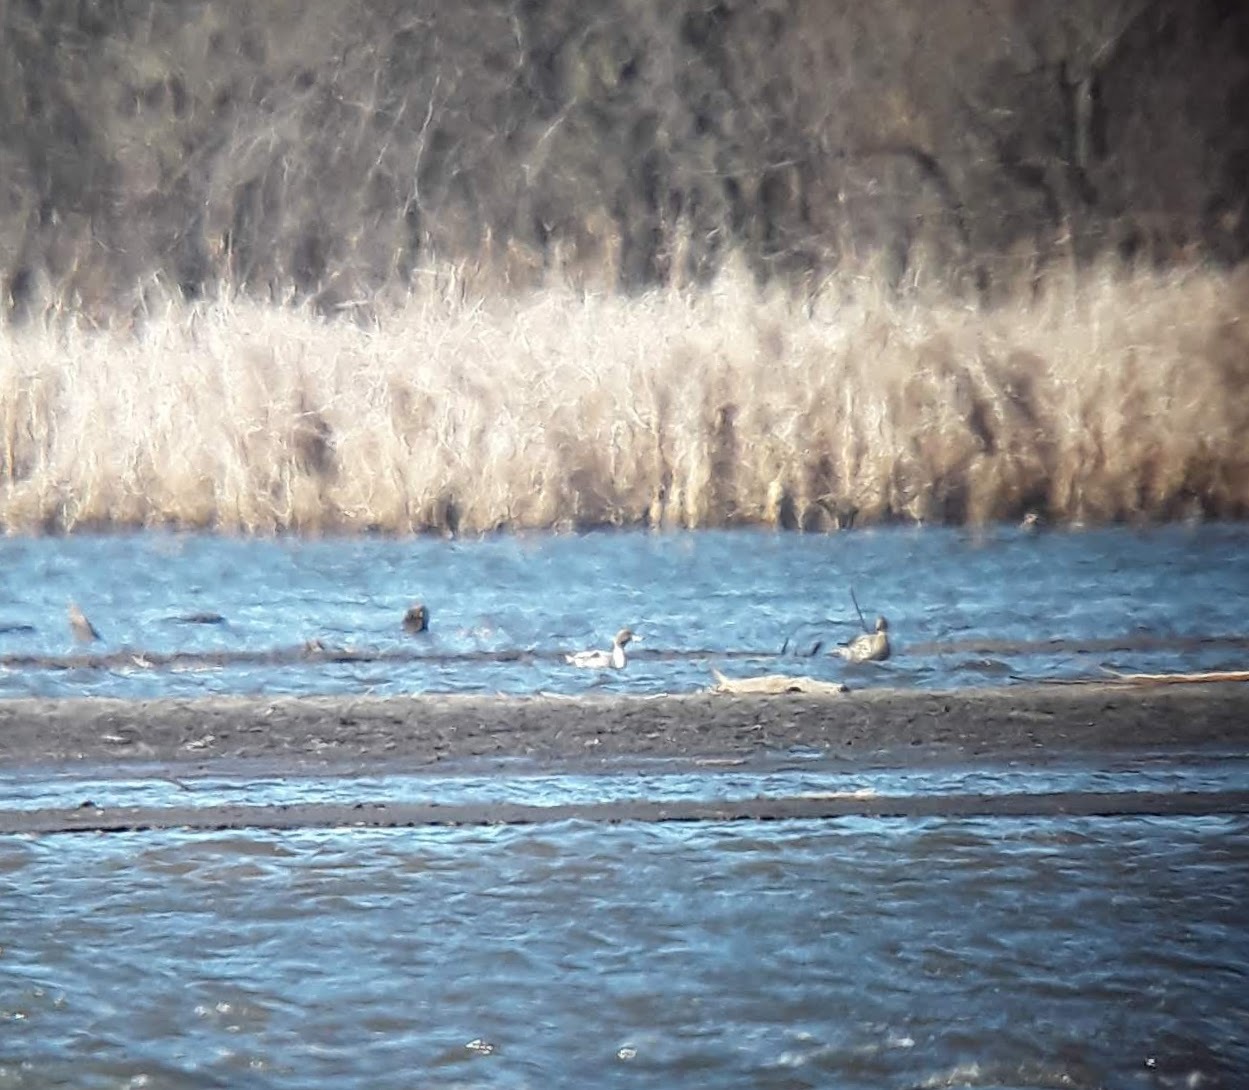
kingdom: Animalia
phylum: Chordata
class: Aves
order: Anseriformes
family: Anatidae
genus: Anas
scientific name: Anas acuta
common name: Northern pintail
